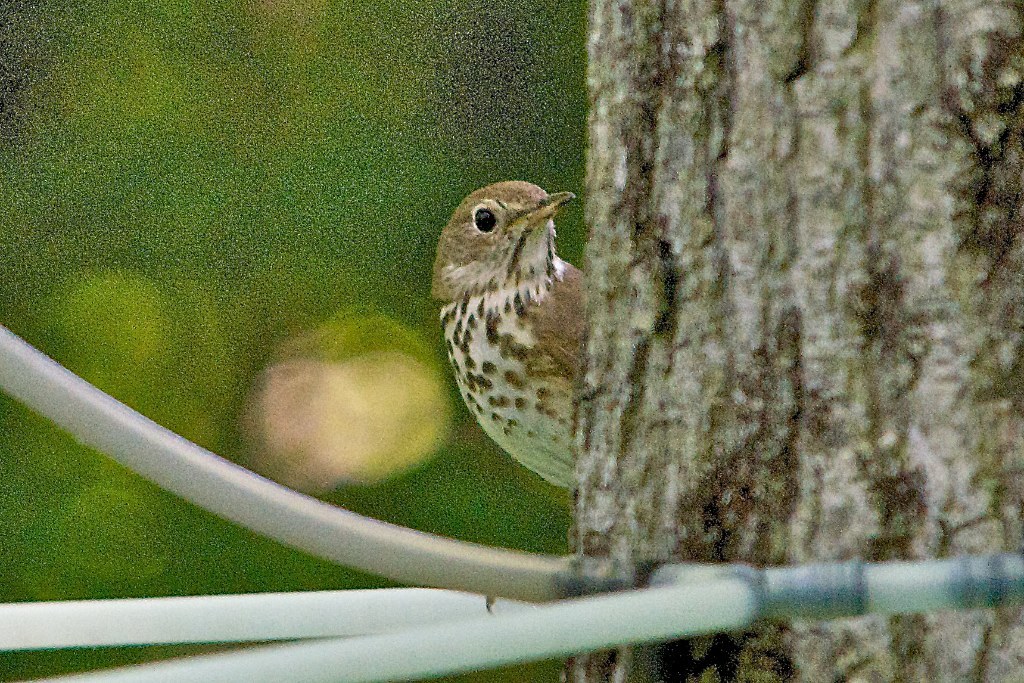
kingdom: Animalia
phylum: Chordata
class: Aves
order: Passeriformes
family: Turdidae
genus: Catharus
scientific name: Catharus guttatus
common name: Hermit thrush
